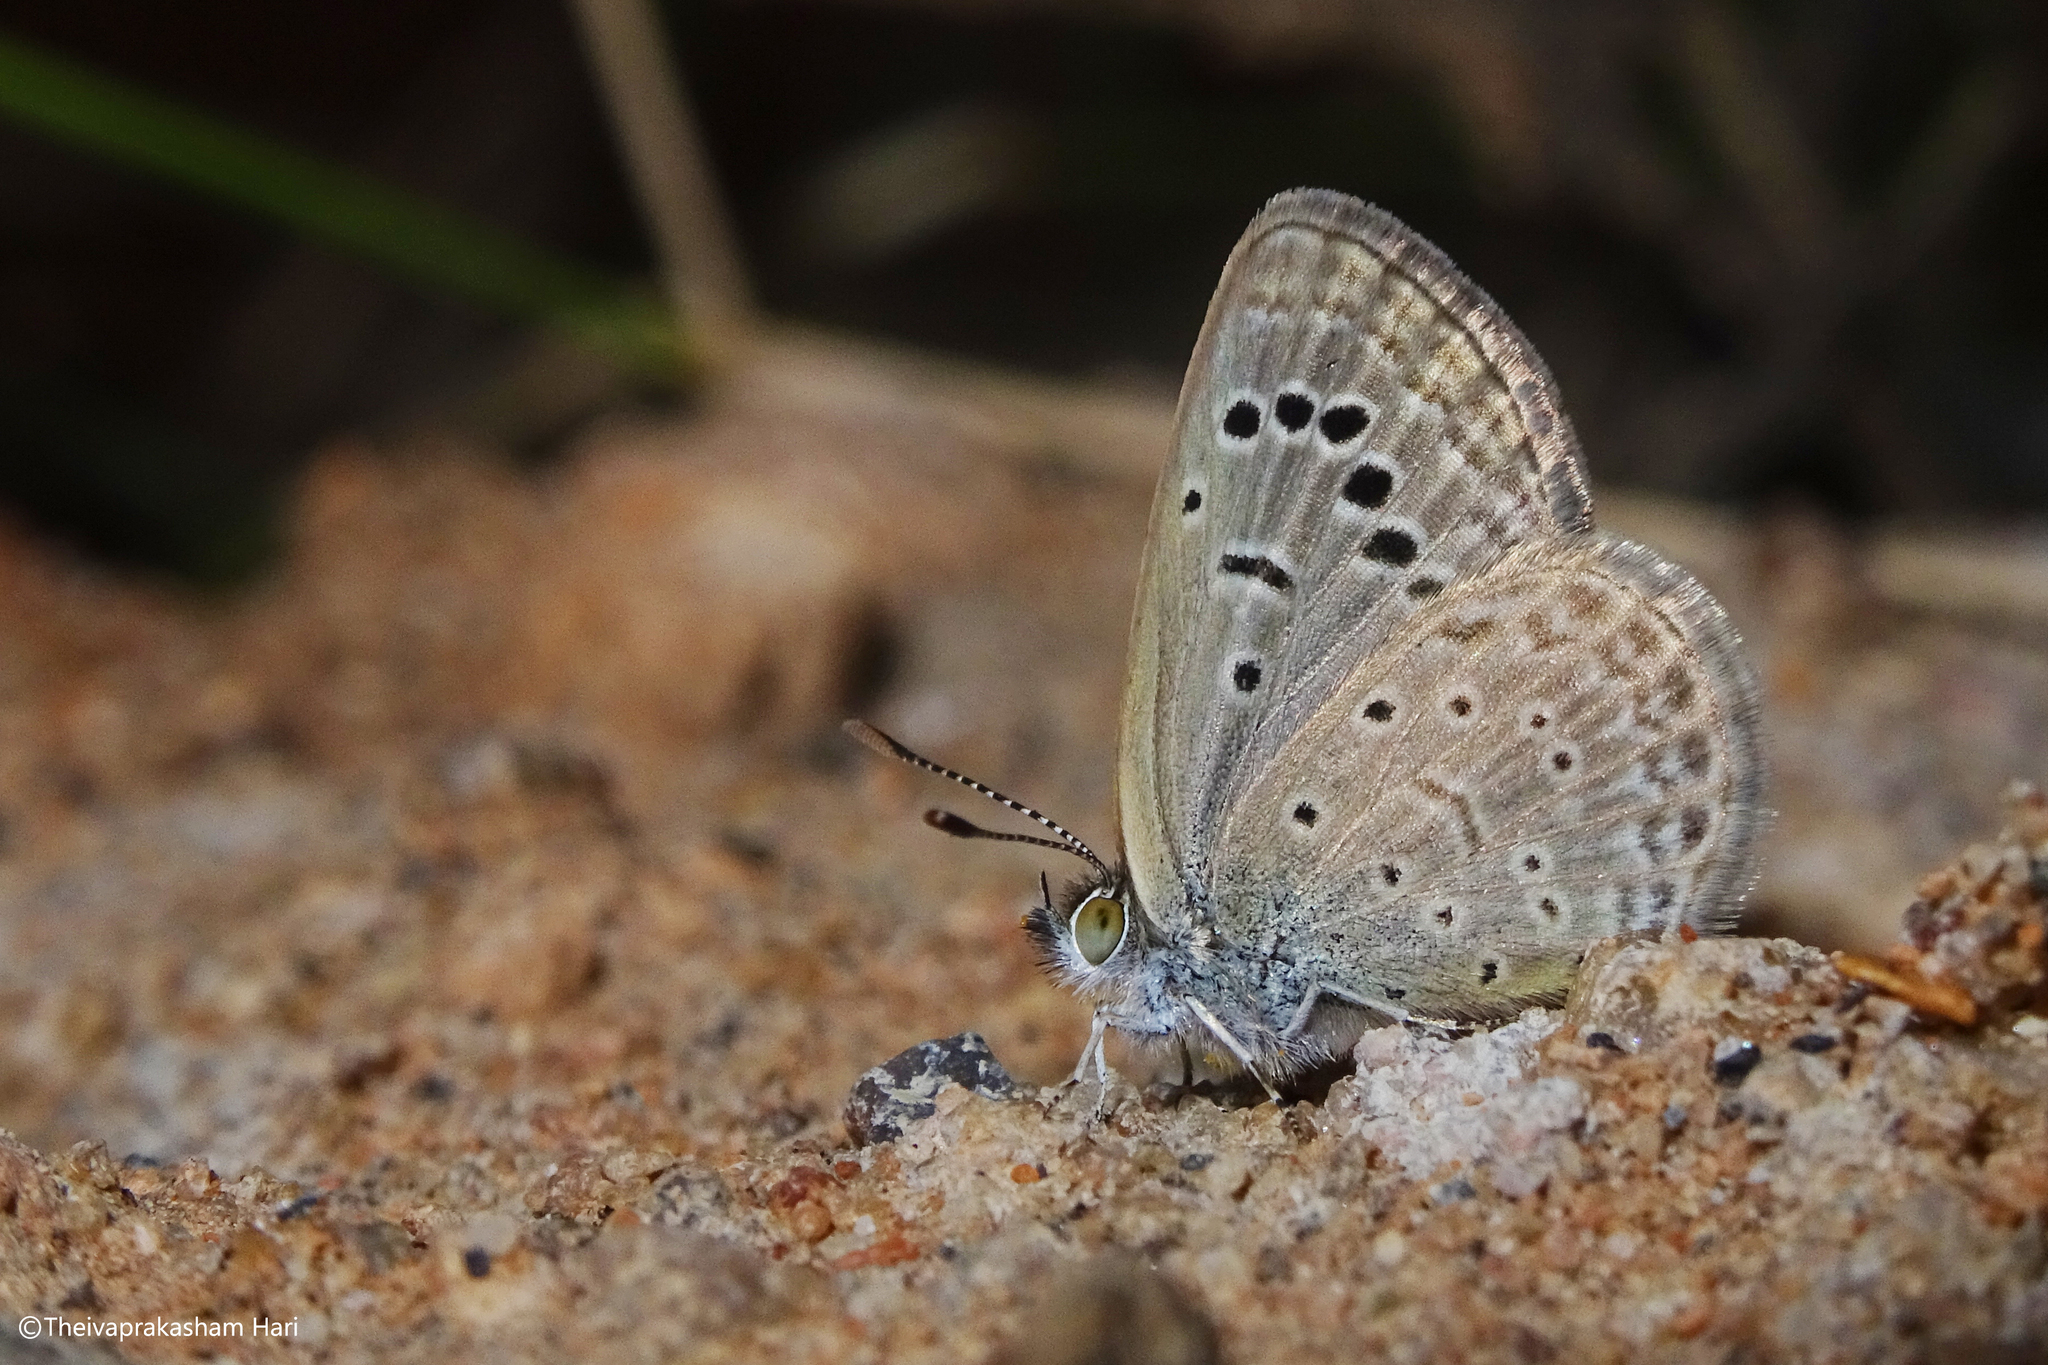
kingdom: Animalia
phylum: Arthropoda
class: Insecta
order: Lepidoptera
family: Lycaenidae
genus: Zizeeria
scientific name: Zizeeria karsandra
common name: Dark grass blue
